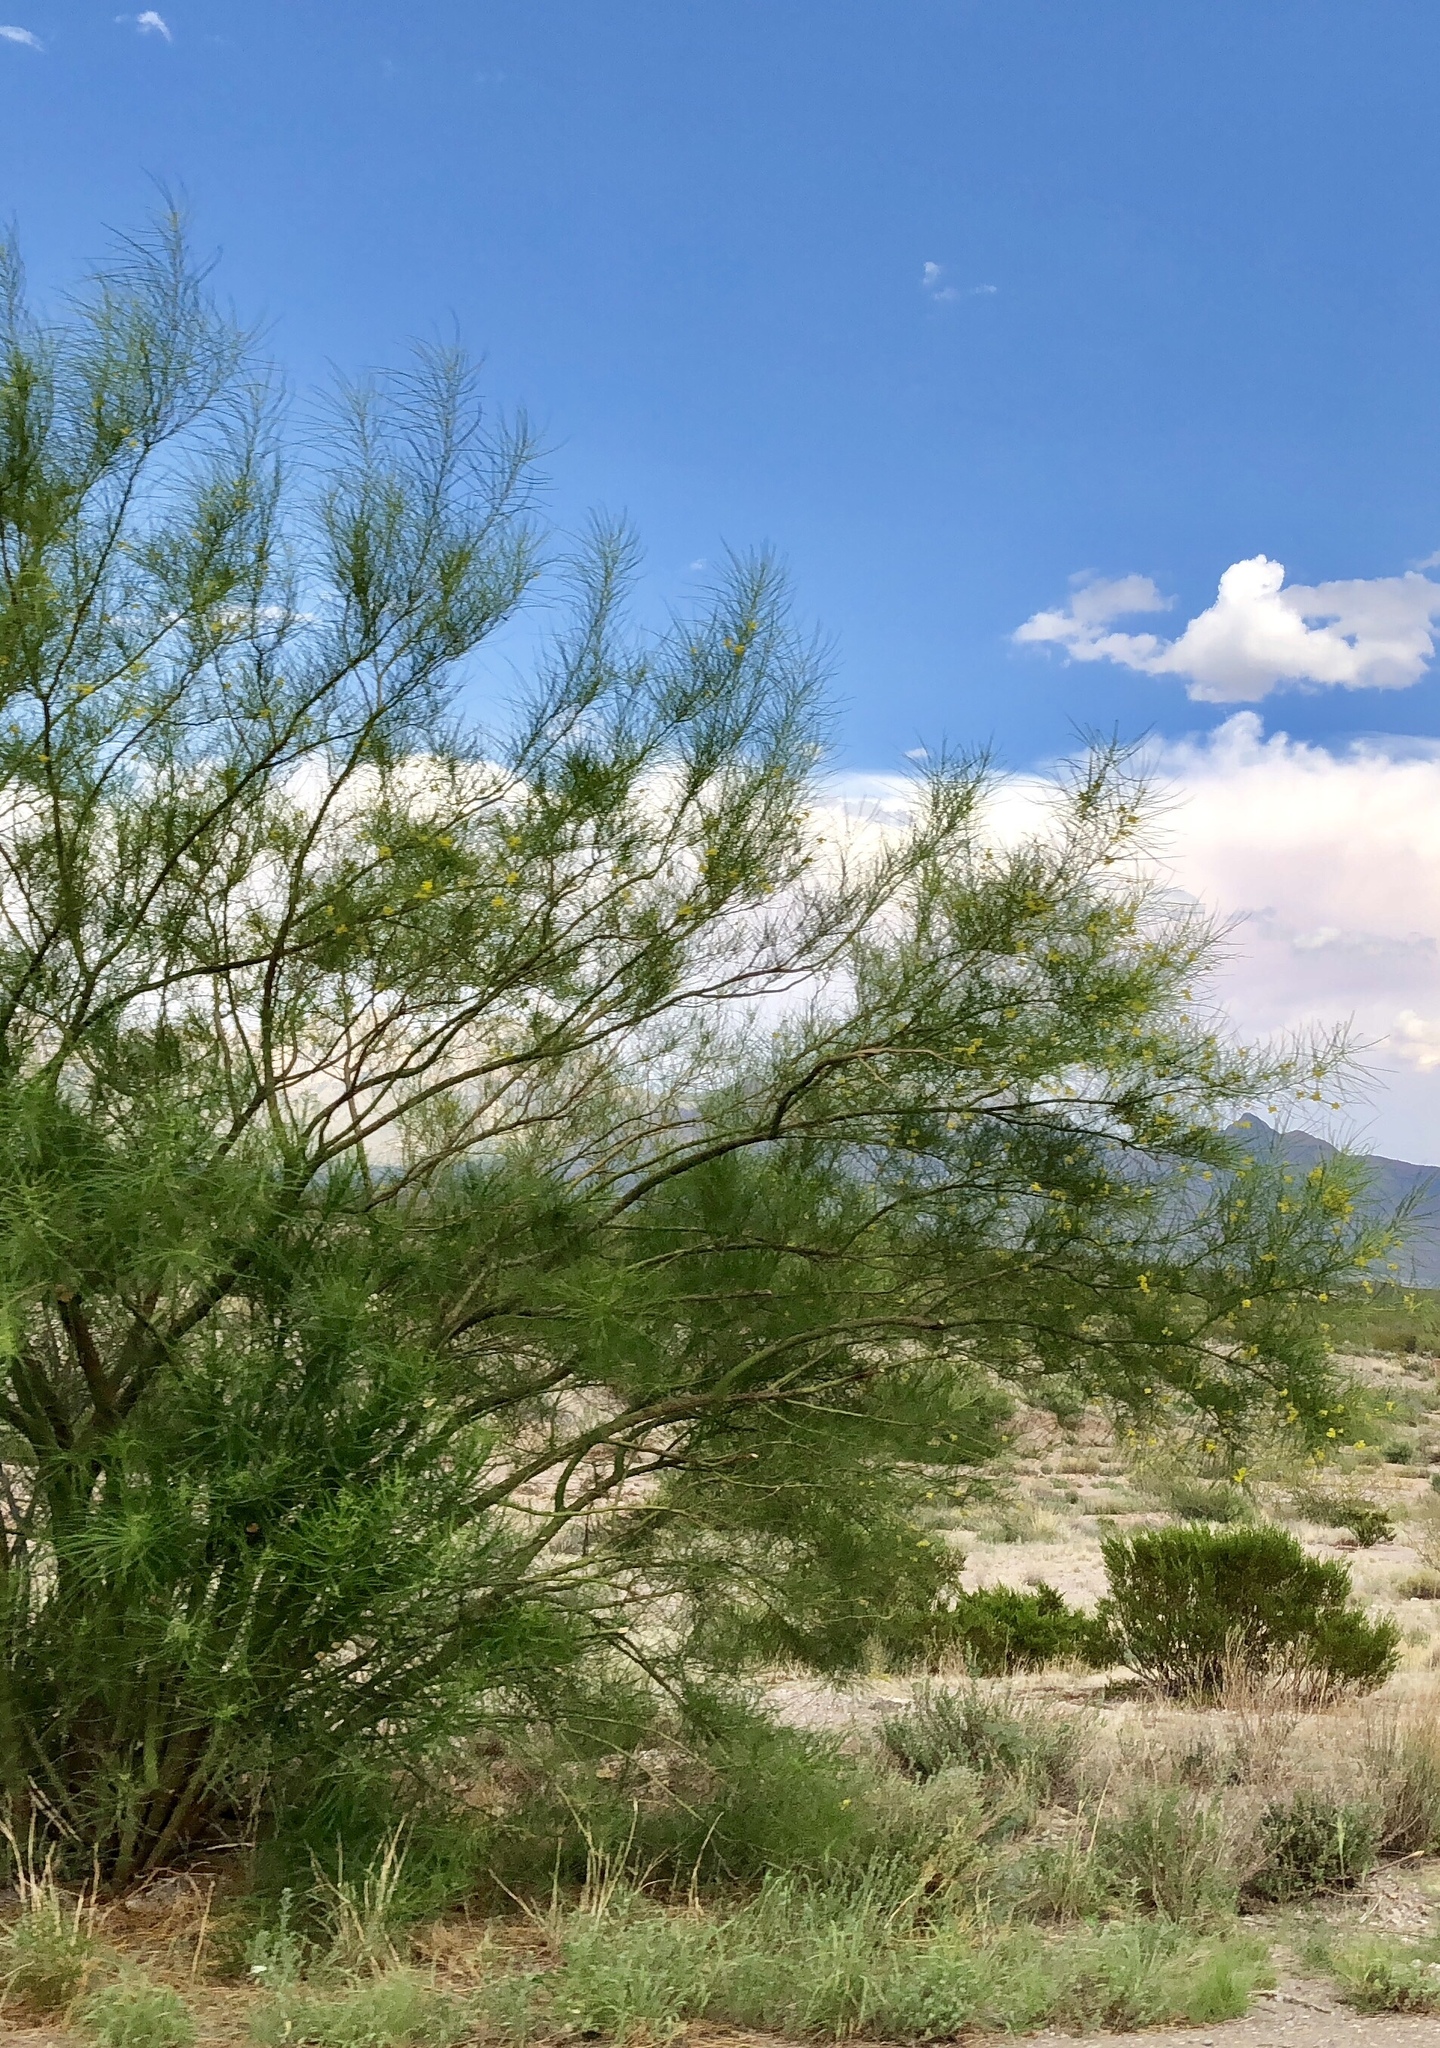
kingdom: Plantae
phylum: Tracheophyta
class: Magnoliopsida
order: Fabales
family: Fabaceae
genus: Parkinsonia
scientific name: Parkinsonia aculeata
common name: Jerusalem thorn
